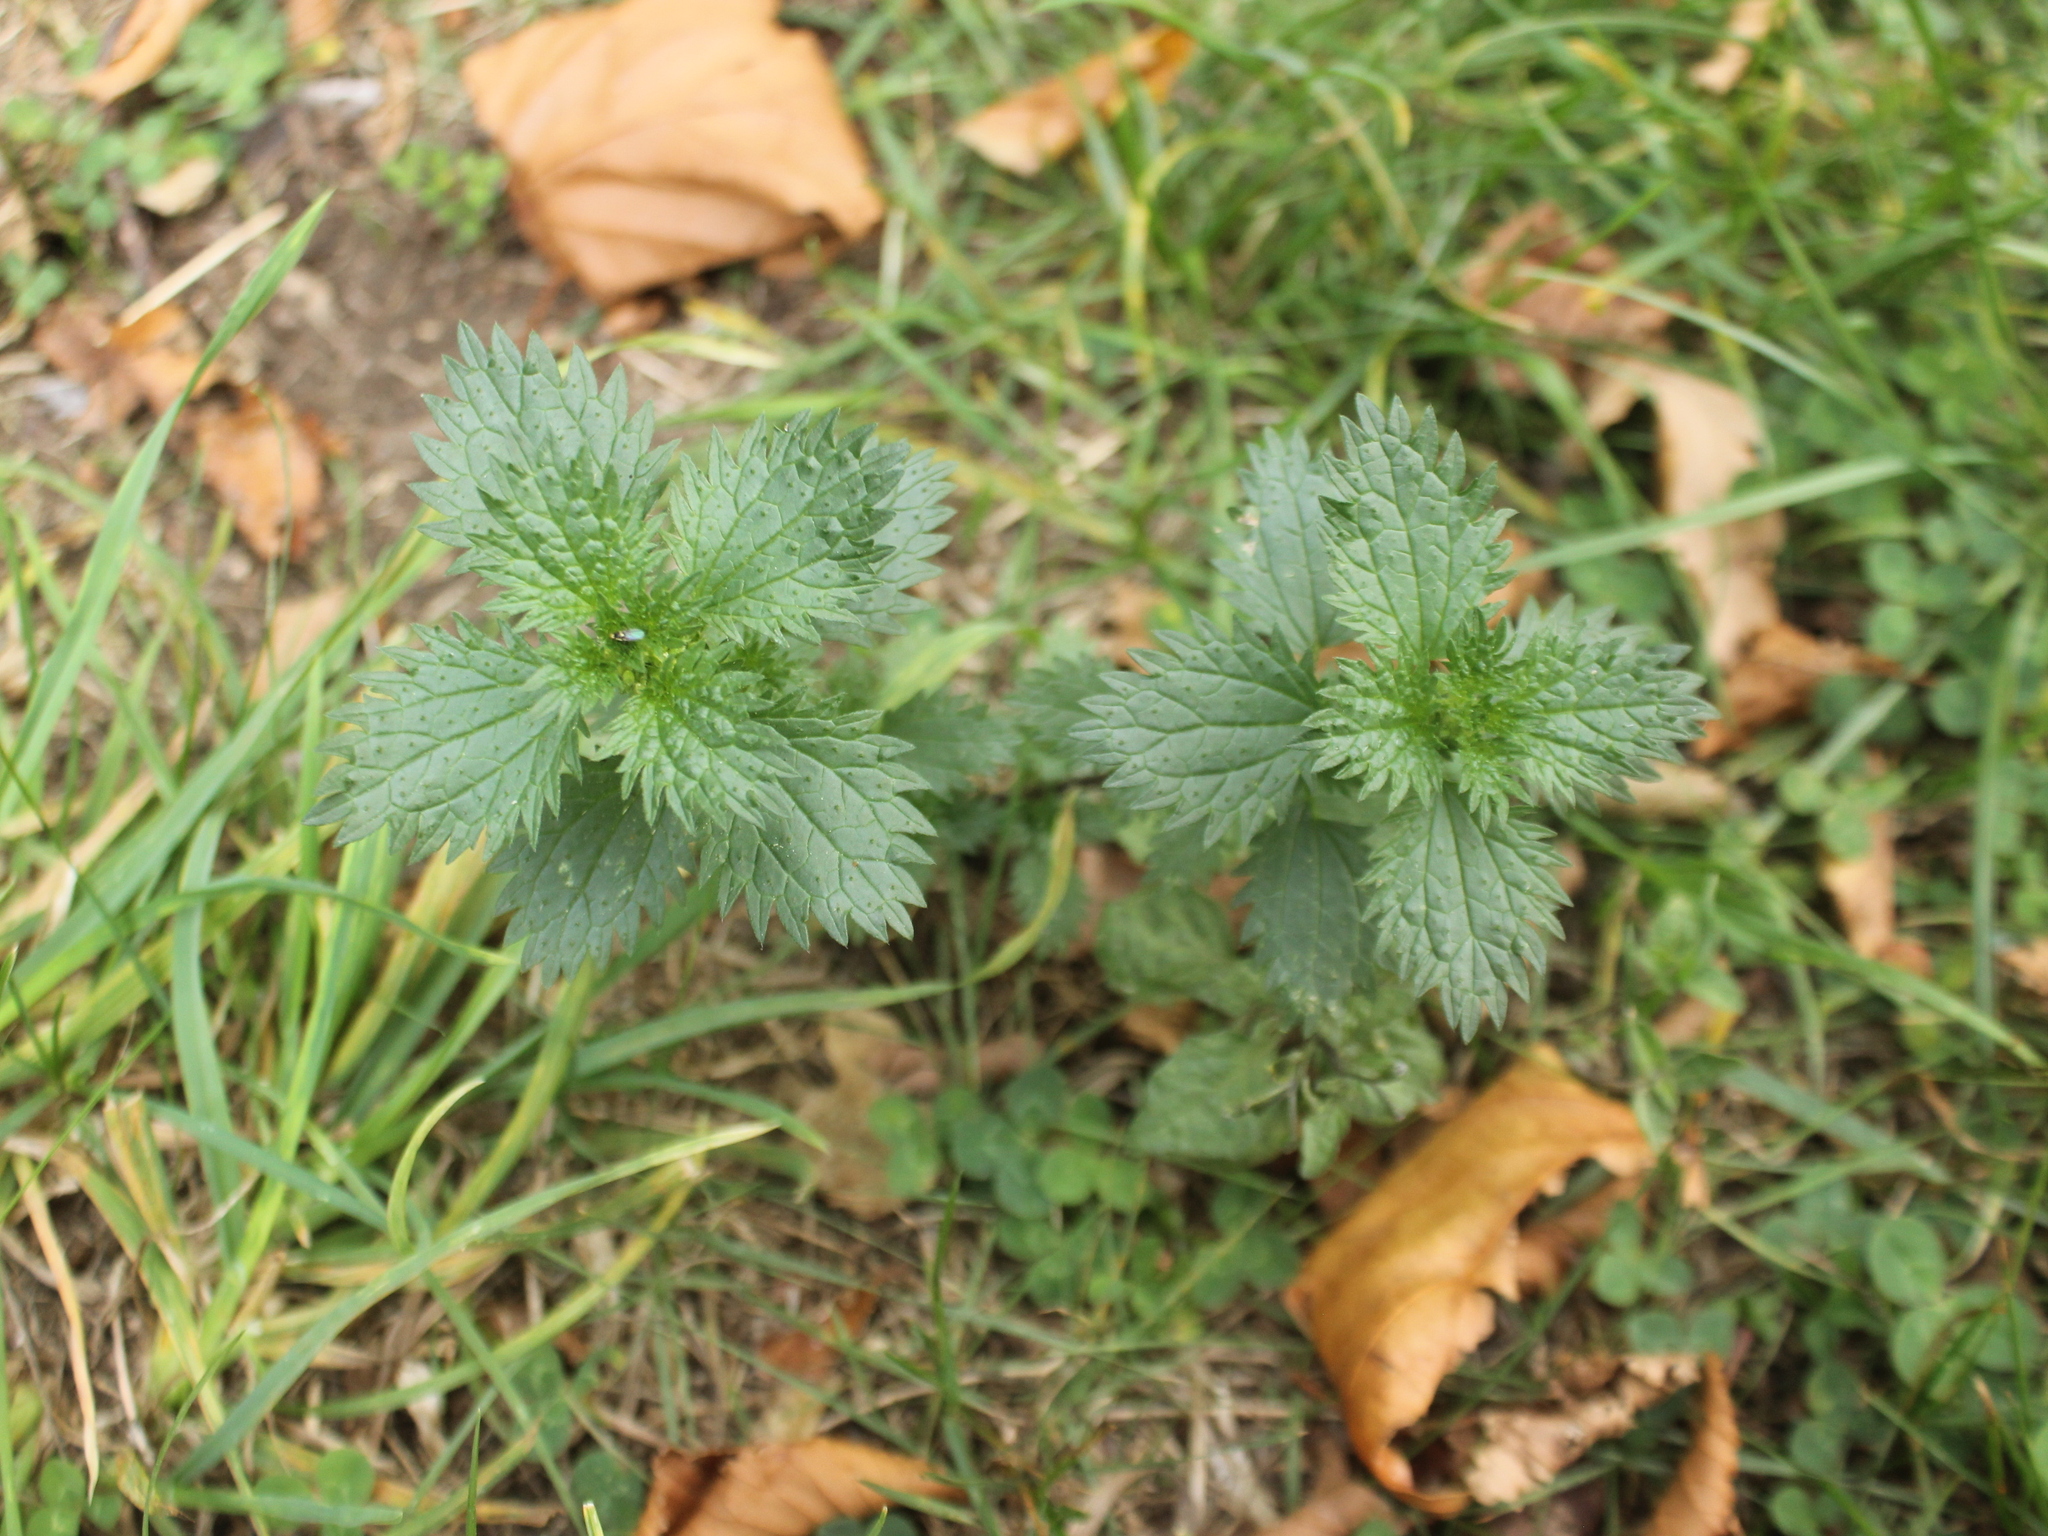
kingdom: Plantae
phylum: Tracheophyta
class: Magnoliopsida
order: Rosales
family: Urticaceae
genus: Urtica
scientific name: Urtica urens
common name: Dwarf nettle
